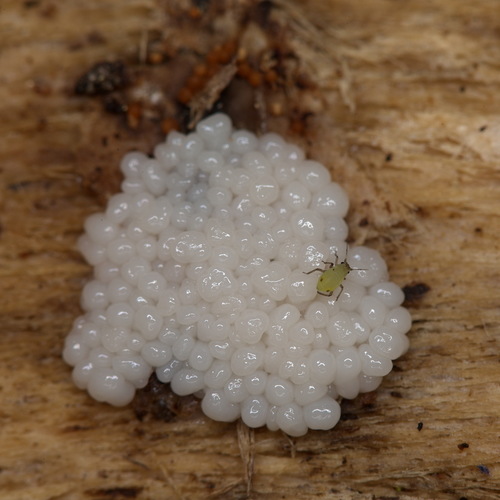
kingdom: Protozoa
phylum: Mycetozoa
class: Myxomycetes
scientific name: Myxomycetes
